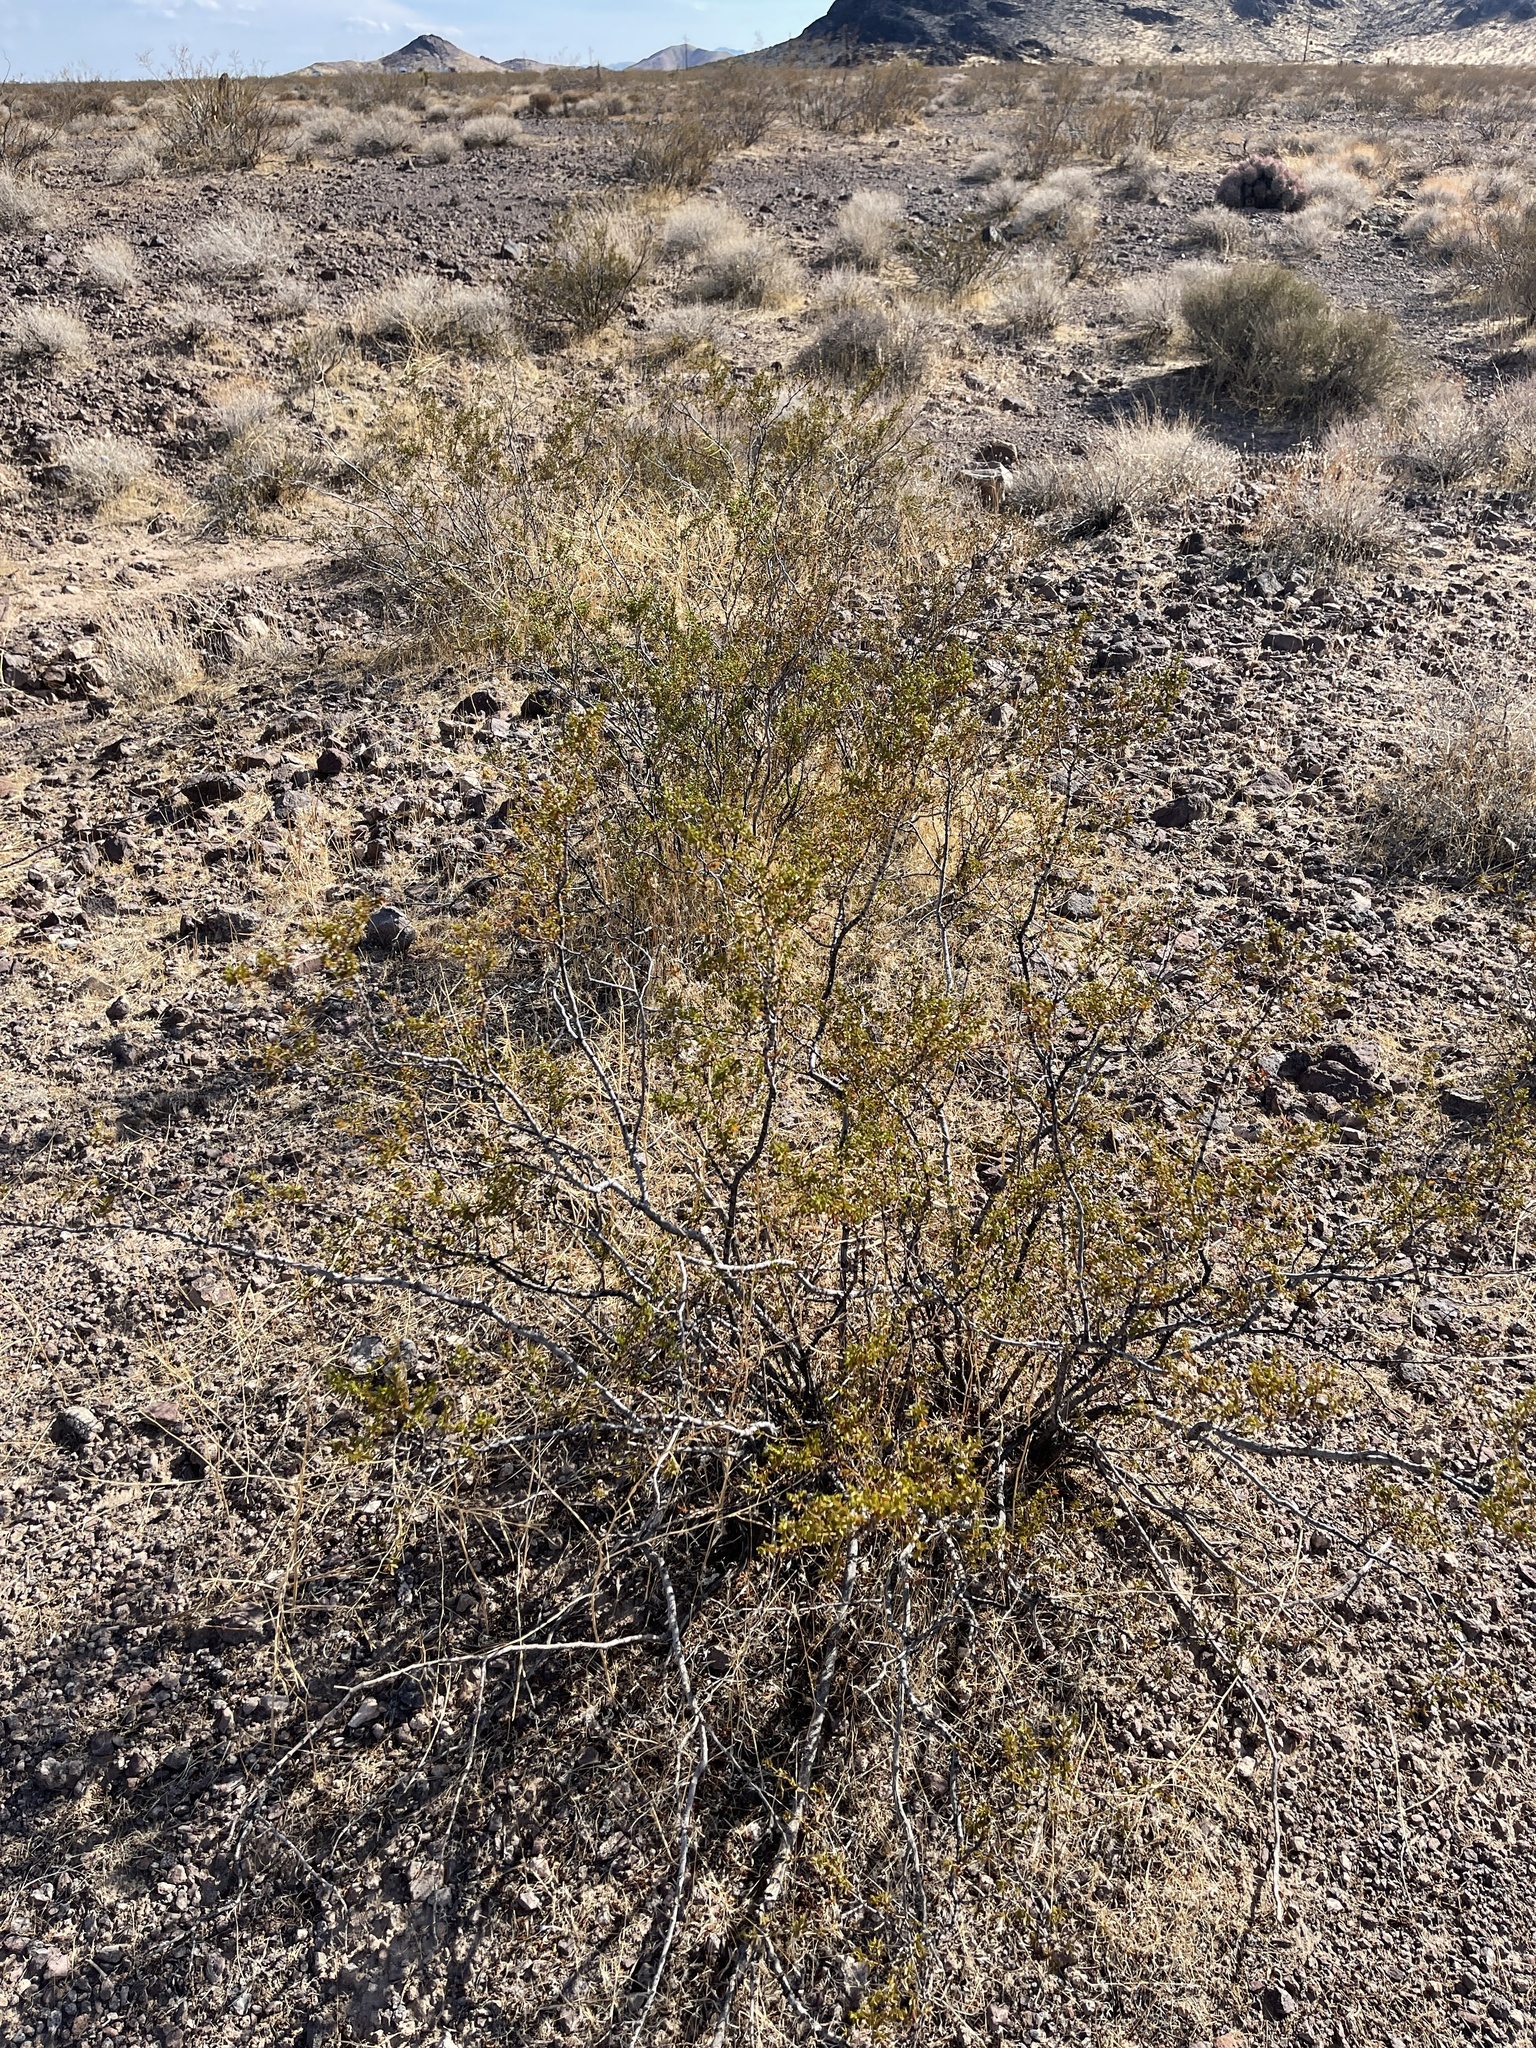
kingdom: Plantae
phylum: Tracheophyta
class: Magnoliopsida
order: Zygophyllales
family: Zygophyllaceae
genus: Larrea
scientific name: Larrea tridentata
